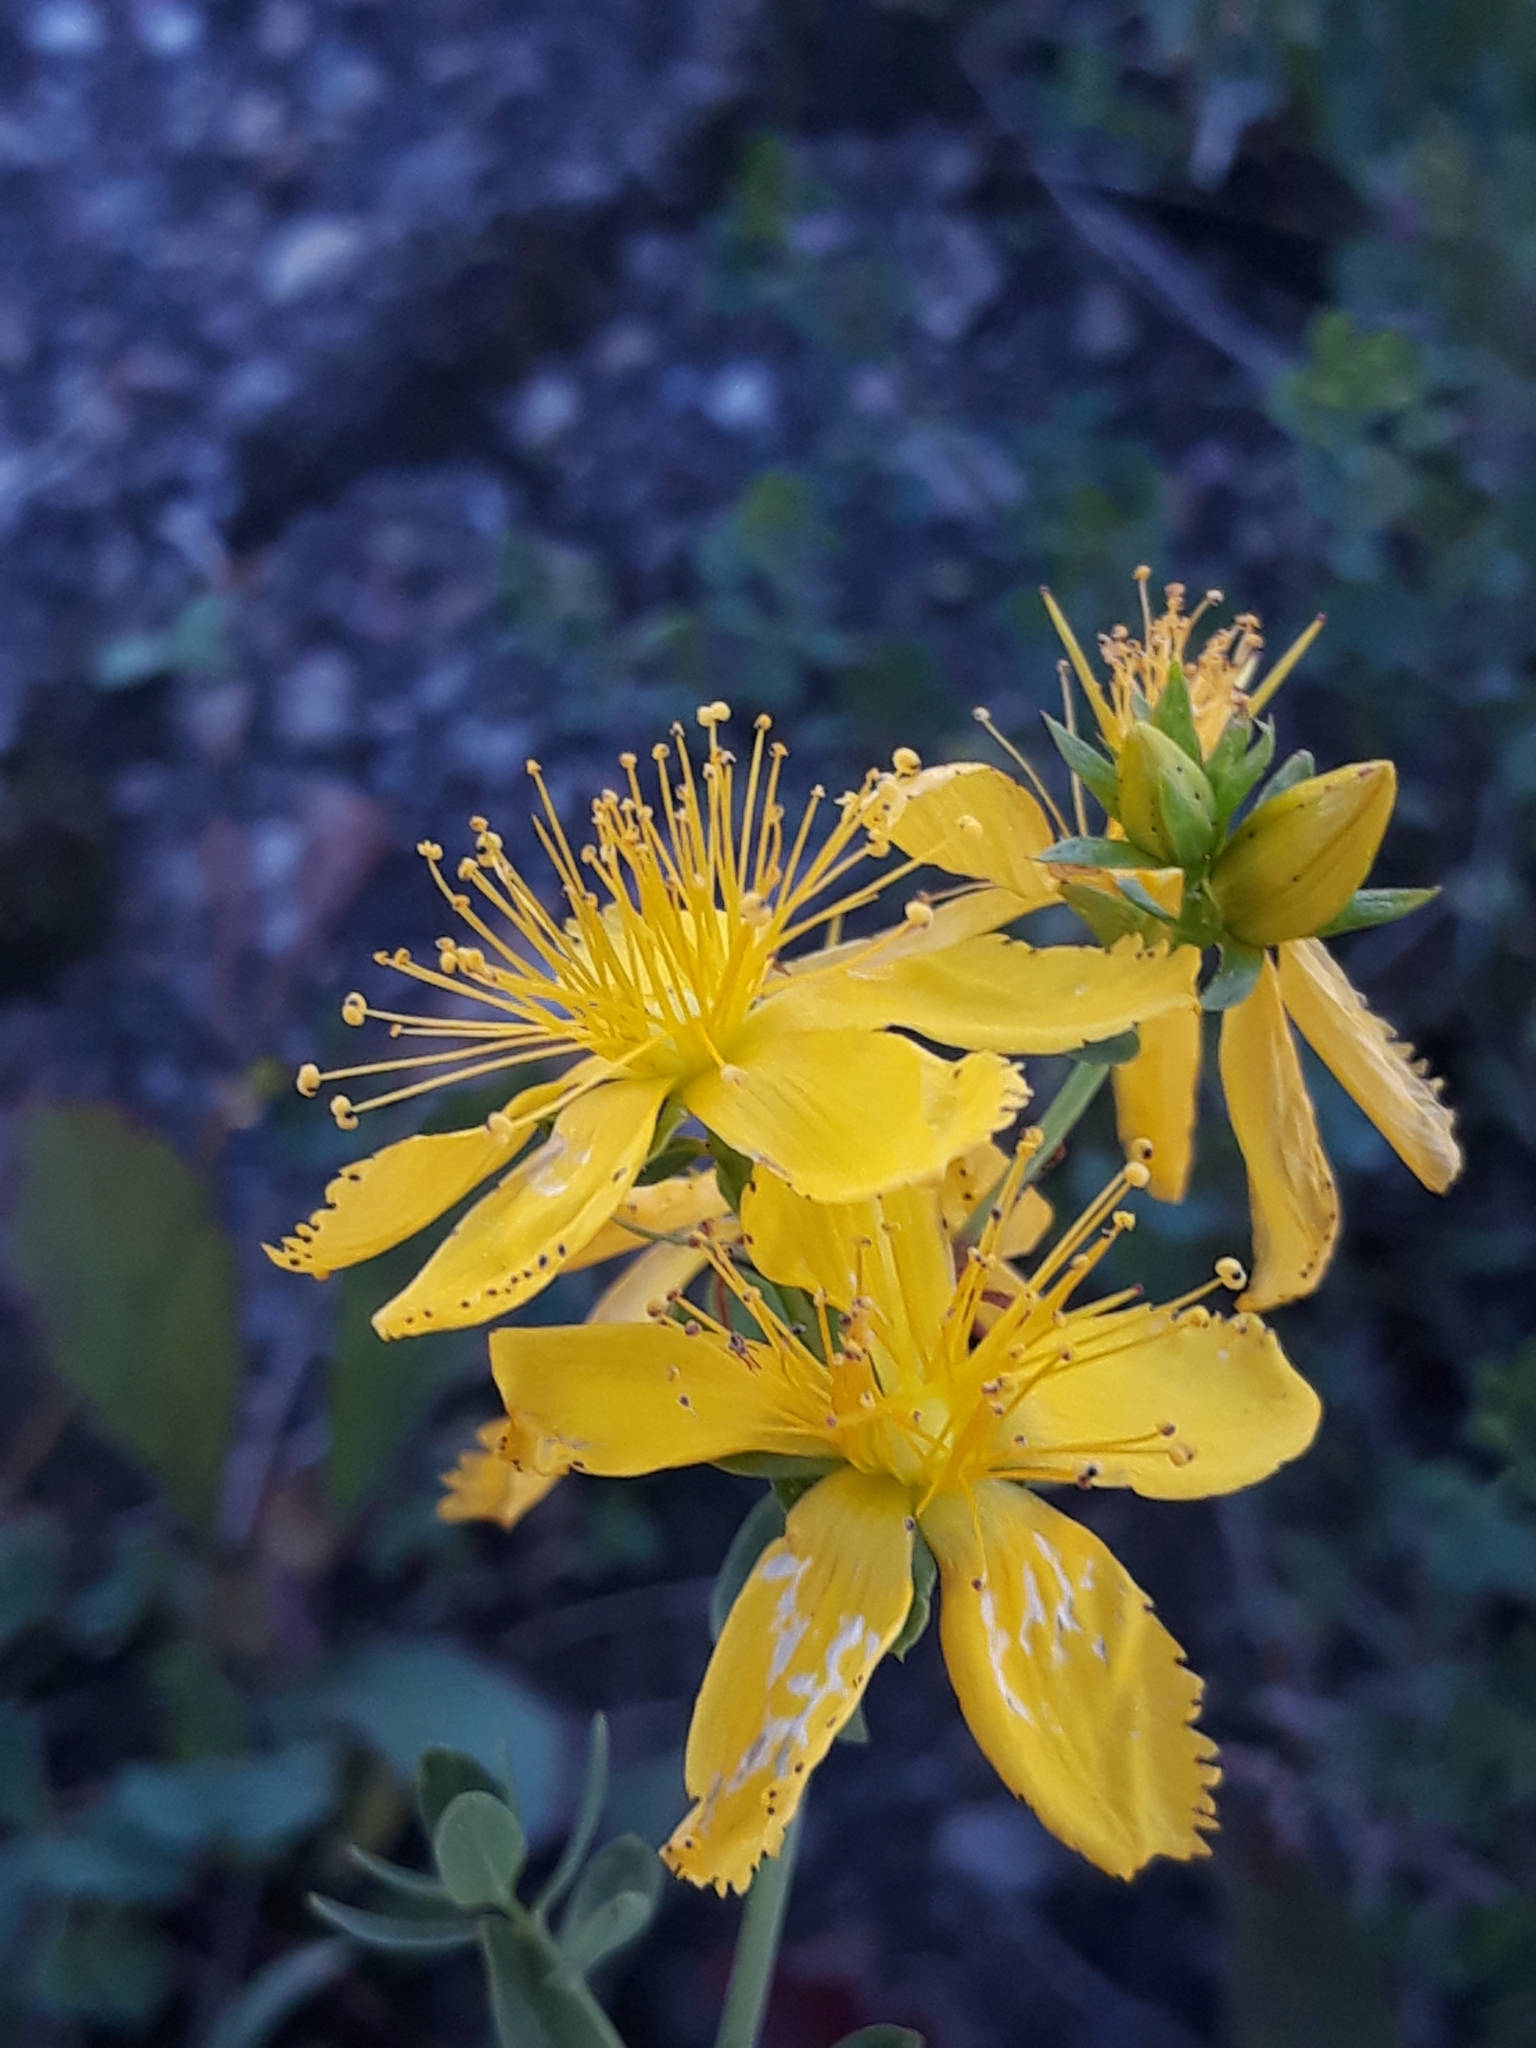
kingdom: Plantae
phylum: Tracheophyta
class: Magnoliopsida
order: Malpighiales
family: Hypericaceae
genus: Hypericum
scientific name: Hypericum perforatum
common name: Common st. johnswort
